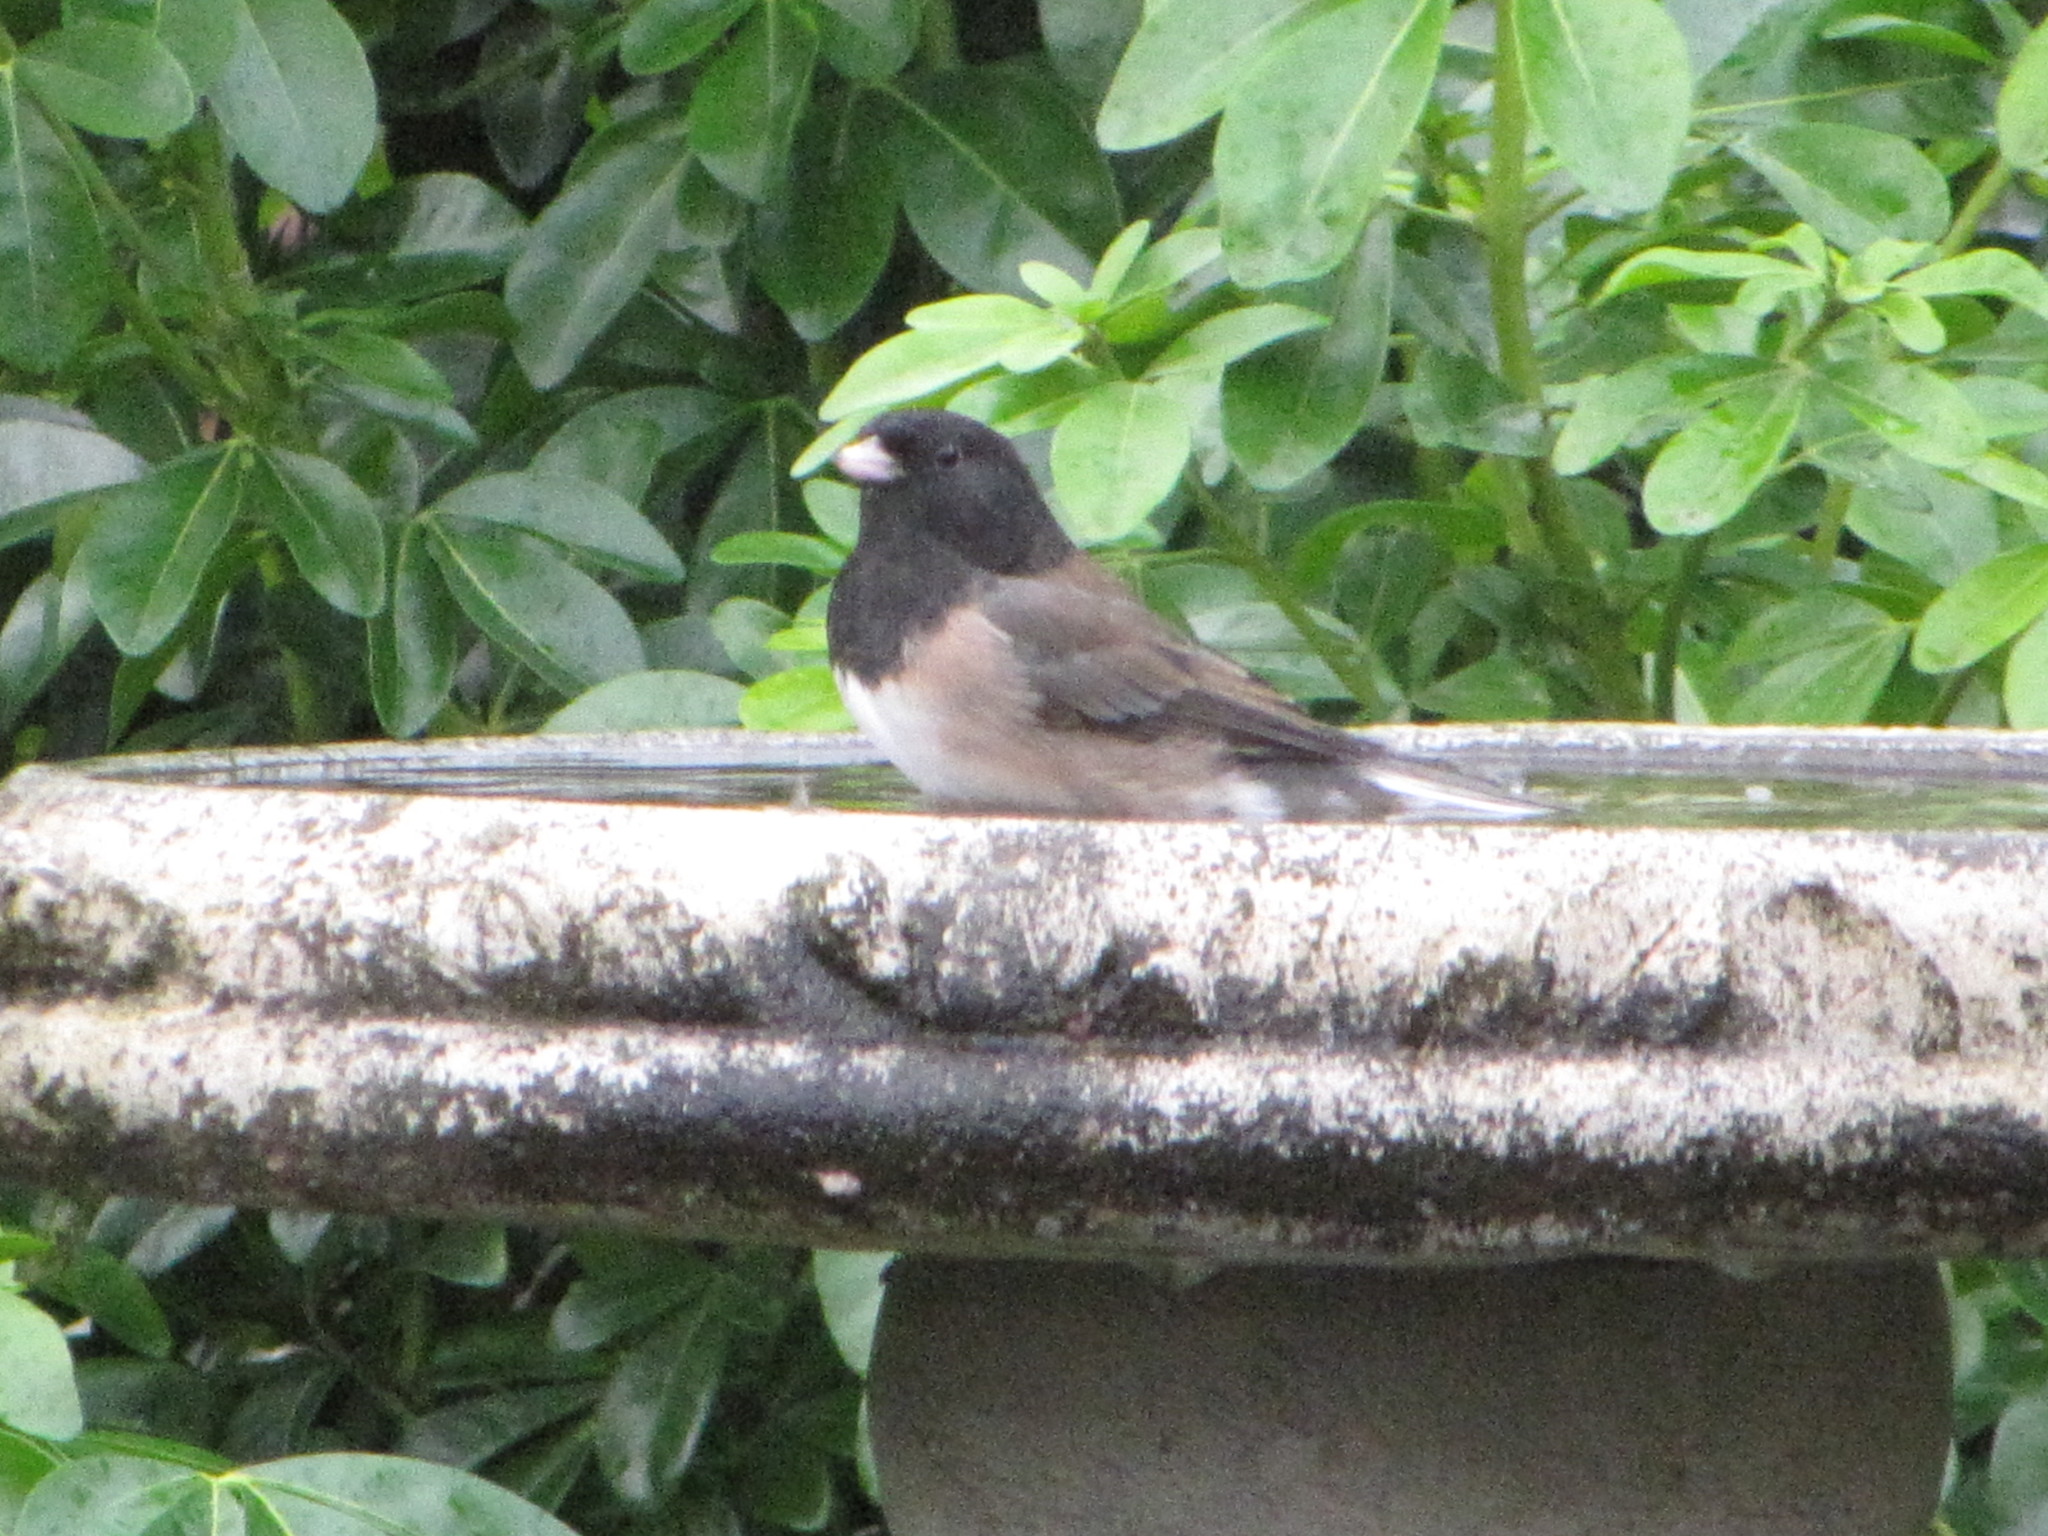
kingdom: Animalia
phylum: Chordata
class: Aves
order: Passeriformes
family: Passerellidae
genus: Junco
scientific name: Junco hyemalis
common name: Dark-eyed junco
